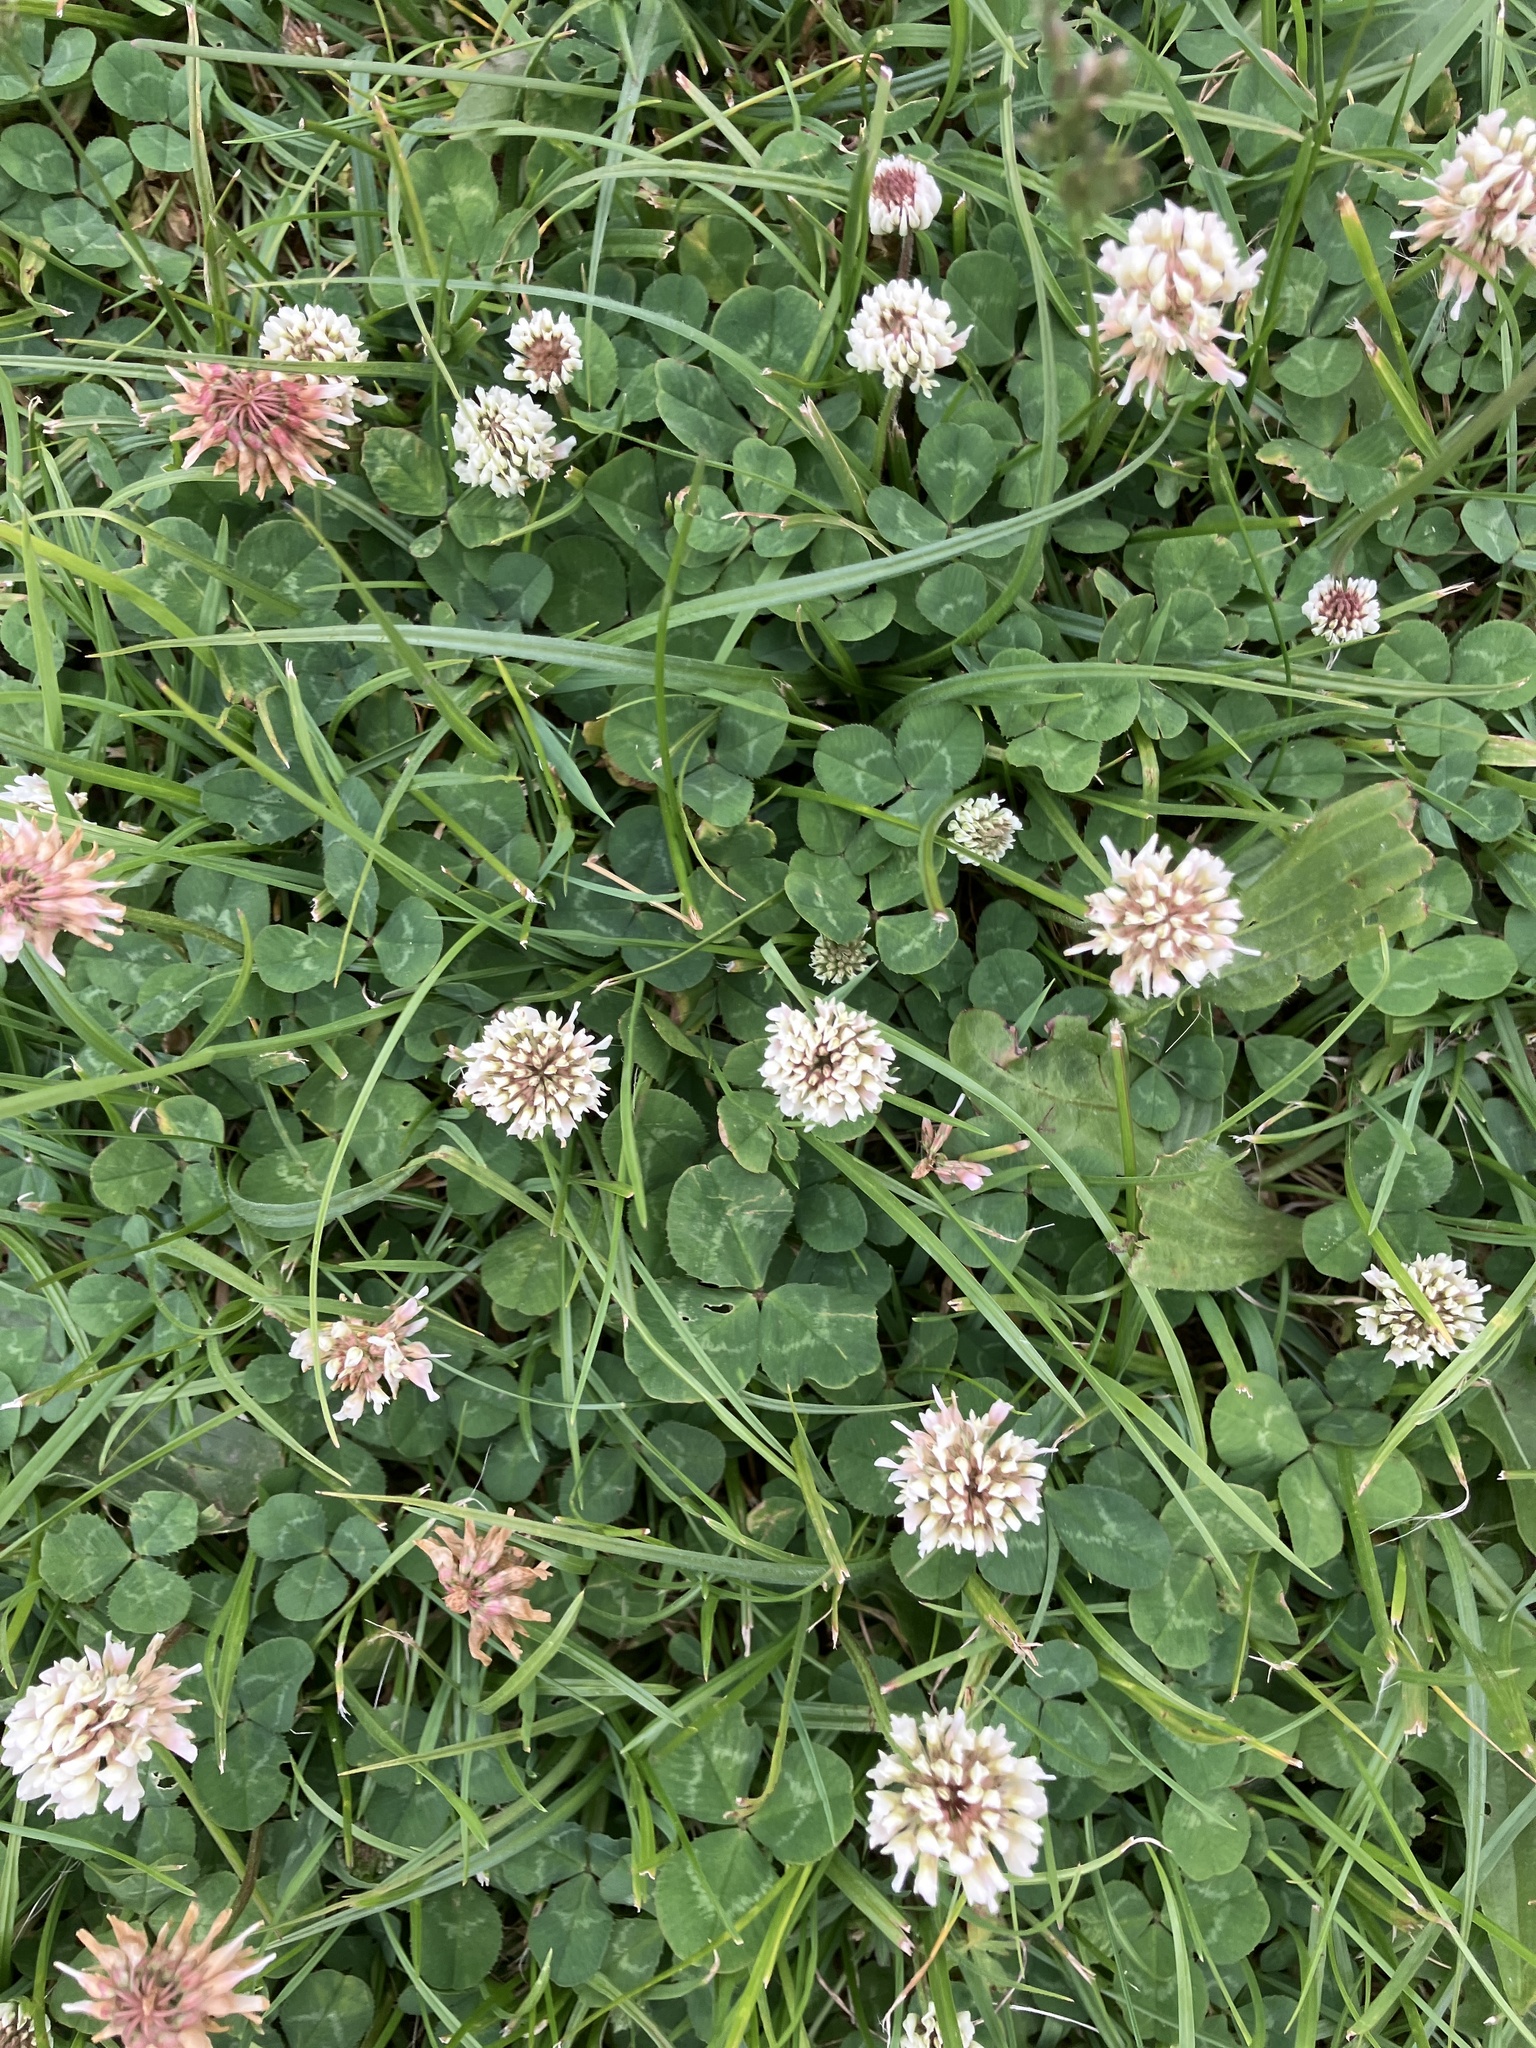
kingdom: Plantae
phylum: Tracheophyta
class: Magnoliopsida
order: Fabales
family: Fabaceae
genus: Trifolium
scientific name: Trifolium repens
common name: White clover
